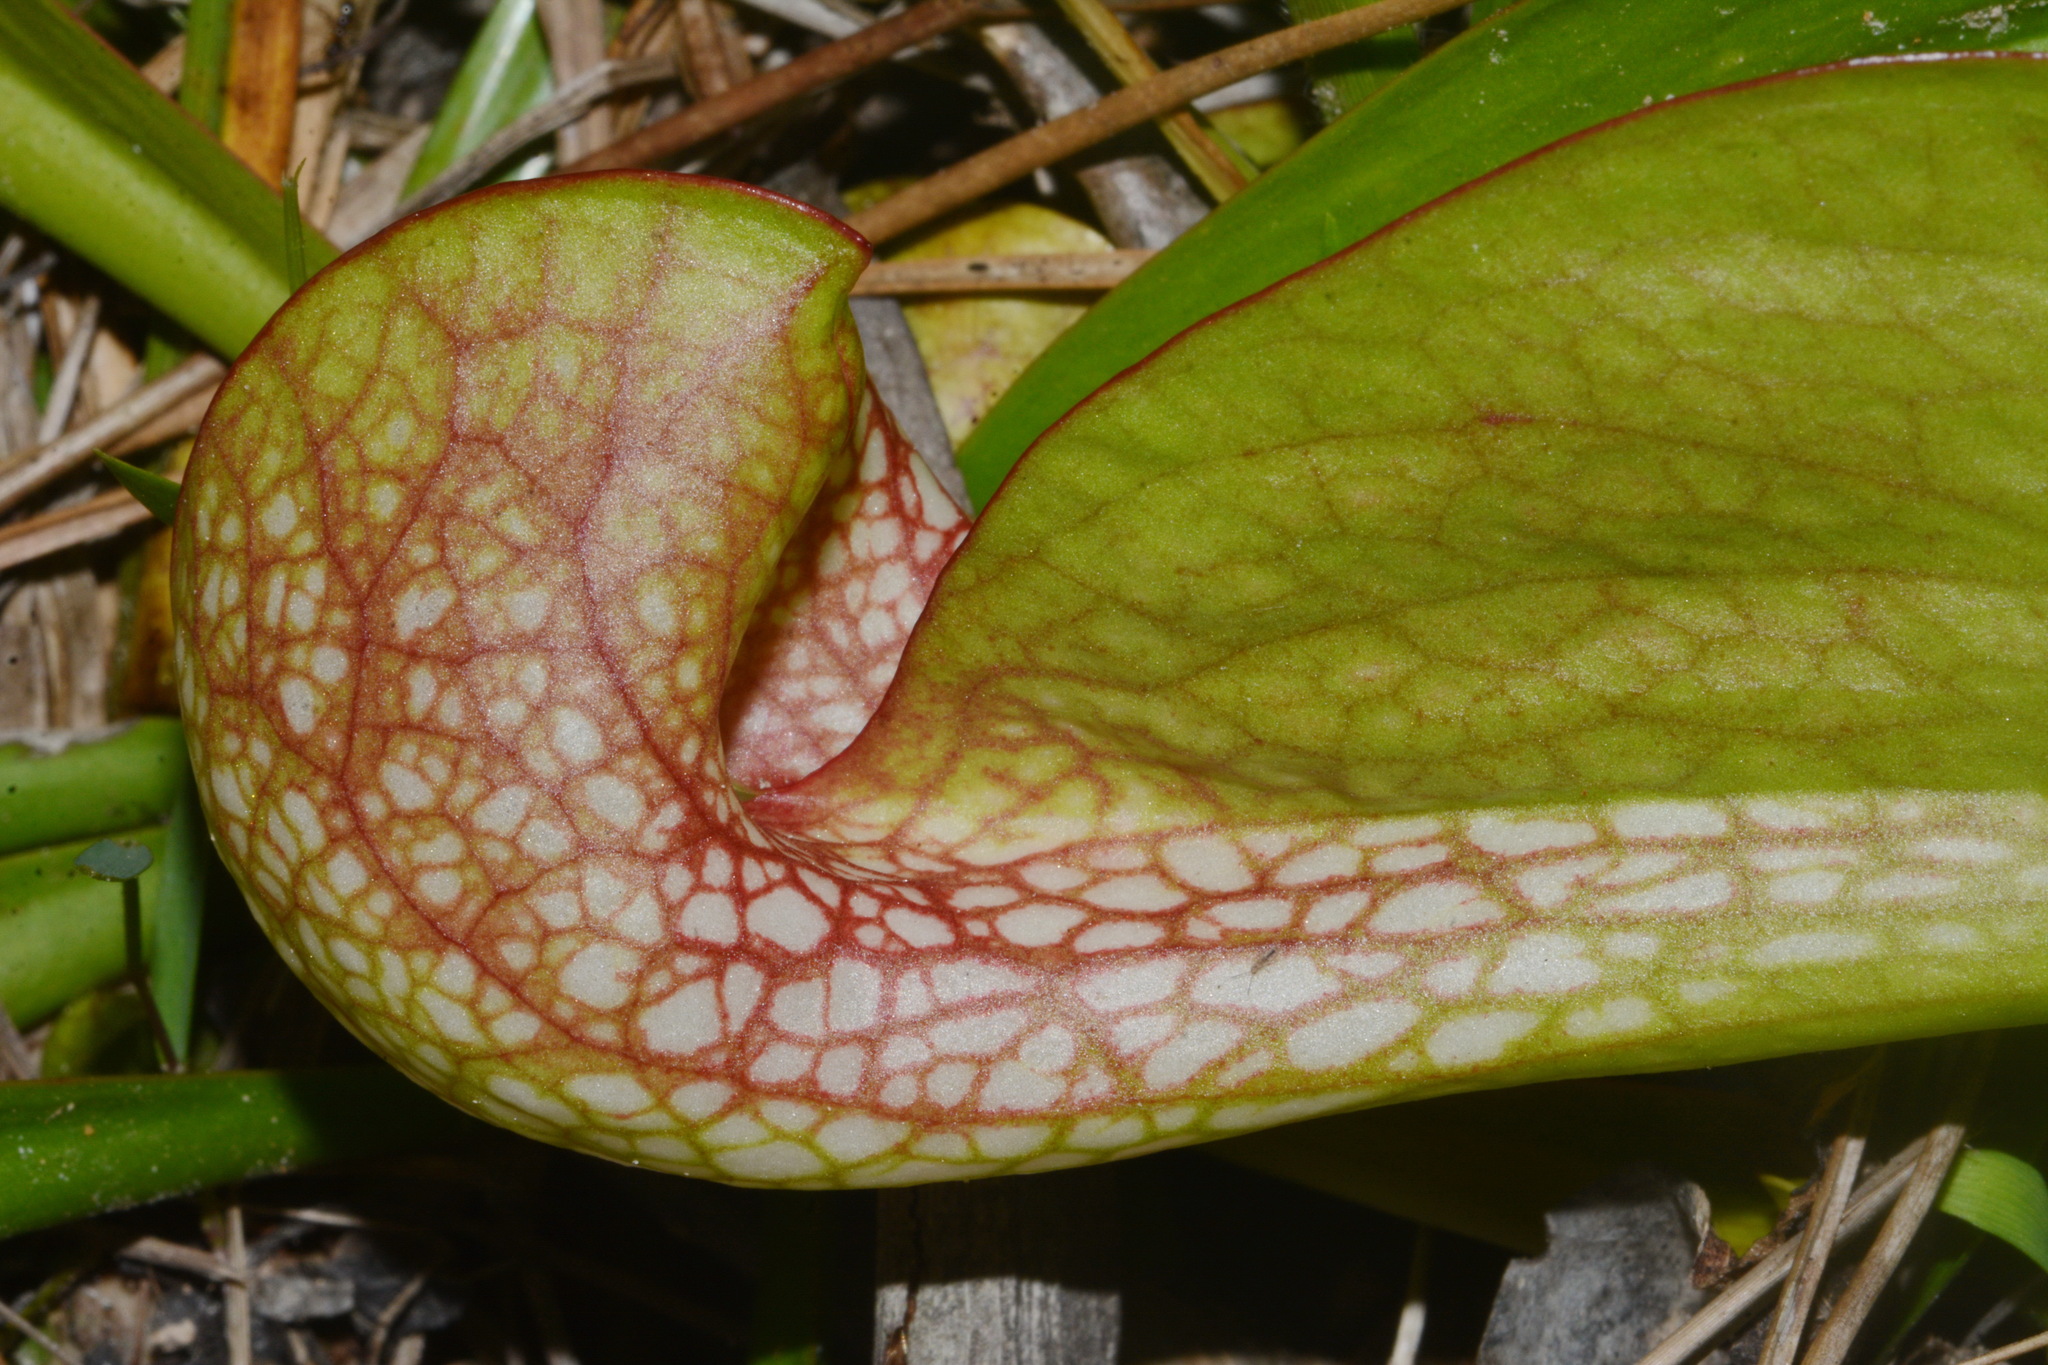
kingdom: Plantae
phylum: Tracheophyta
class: Magnoliopsida
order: Ericales
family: Sarraceniaceae
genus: Sarracenia
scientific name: Sarracenia psittacina
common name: Parrot pitcherplant
